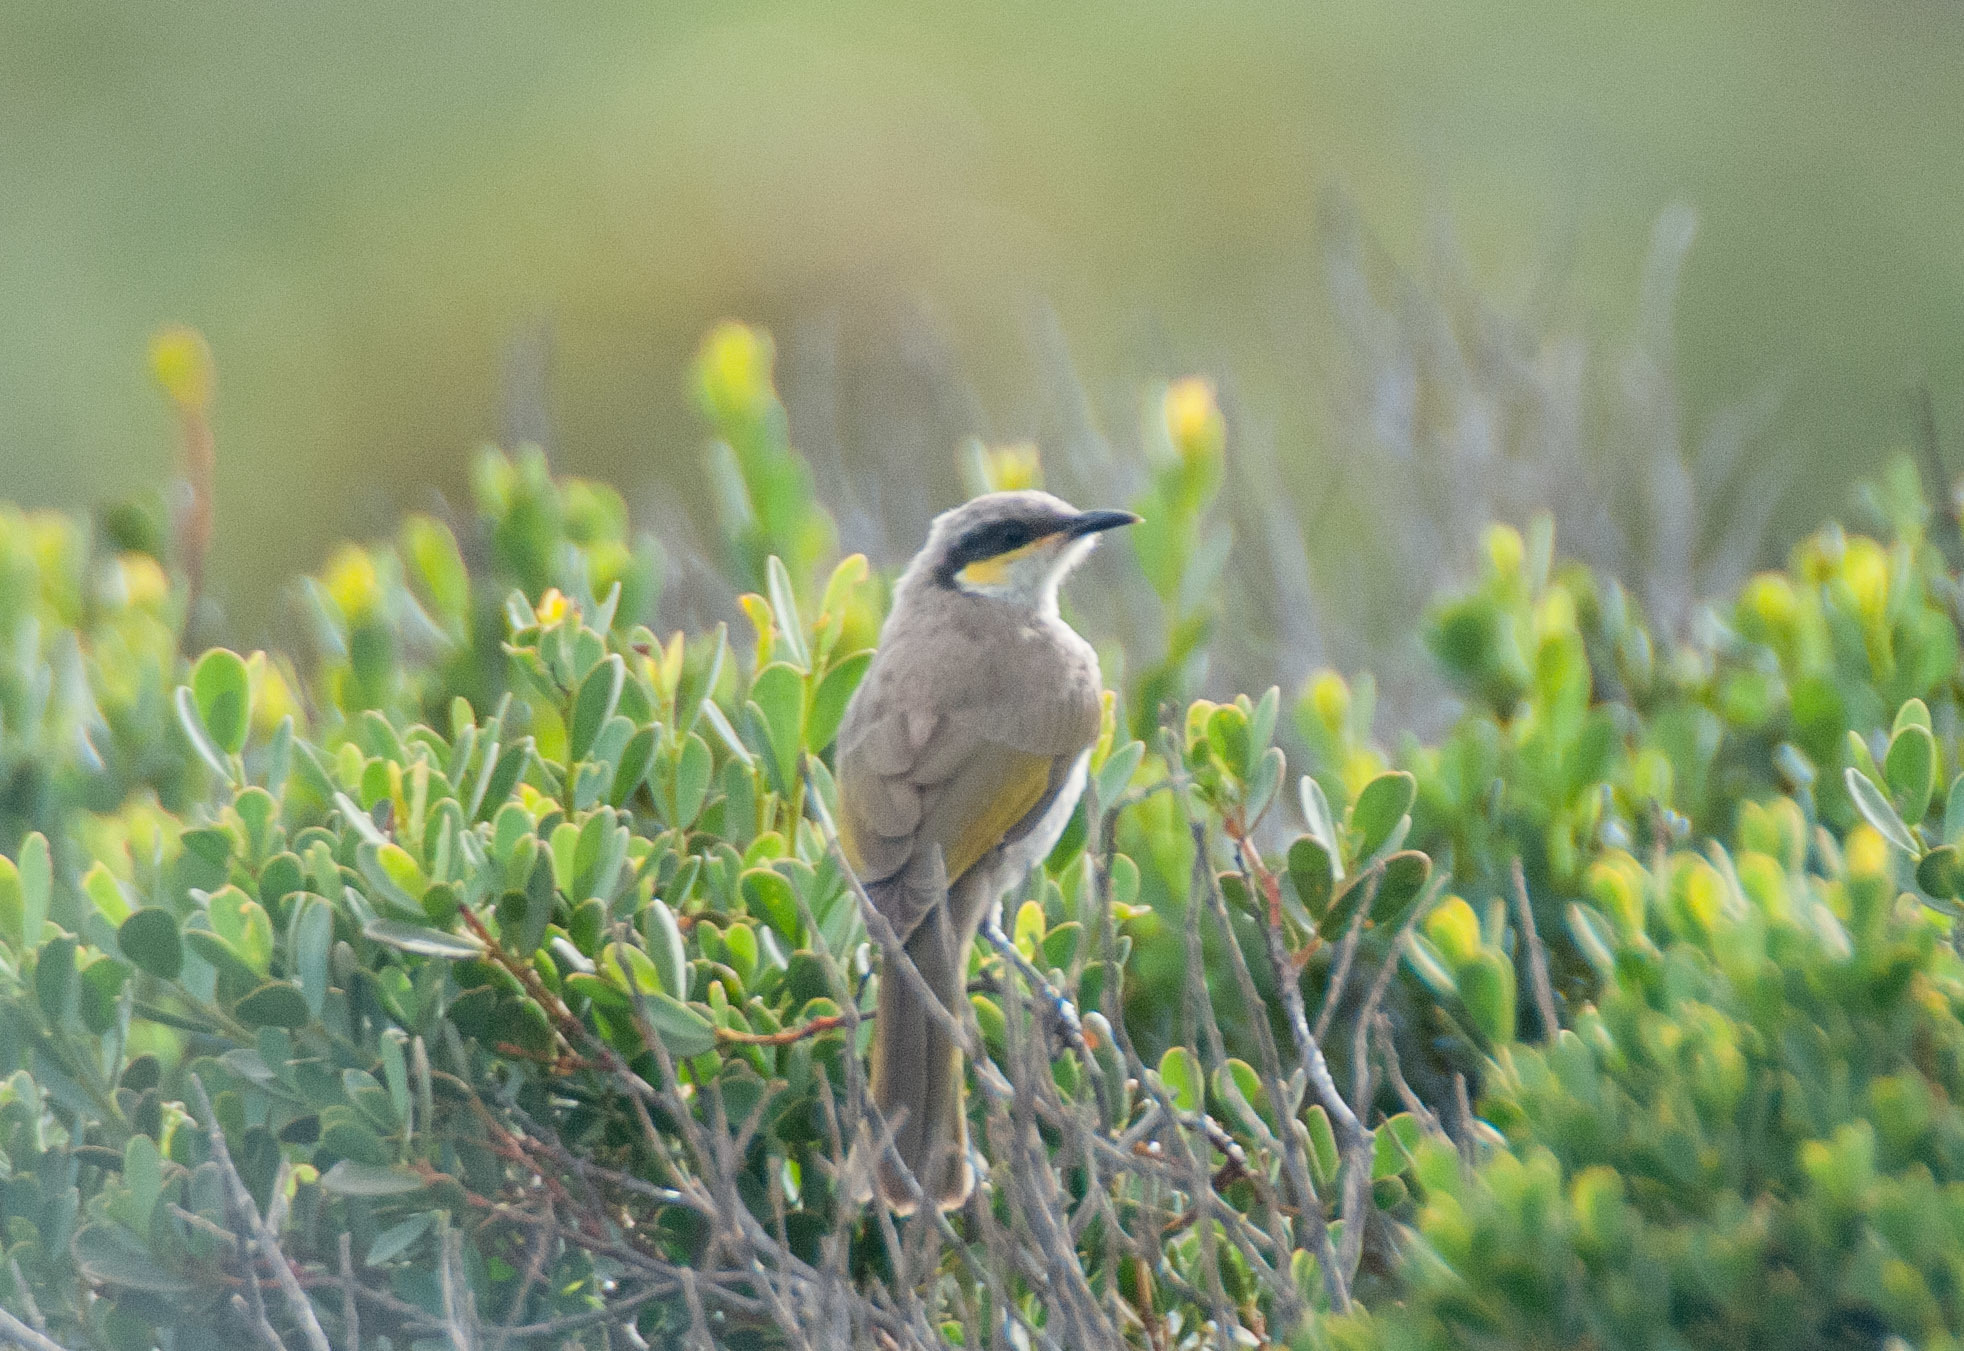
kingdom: Animalia
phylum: Chordata
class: Aves
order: Passeriformes
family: Meliphagidae
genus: Gavicalis
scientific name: Gavicalis virescens
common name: Singing honeyeater
